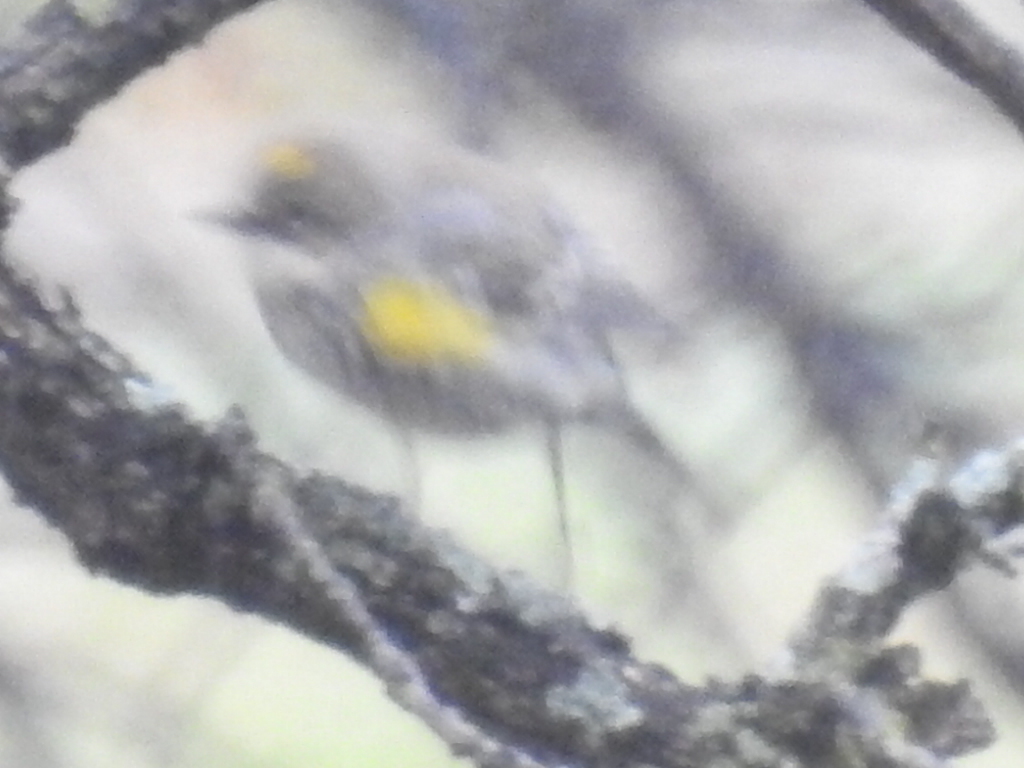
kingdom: Animalia
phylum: Chordata
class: Aves
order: Passeriformes
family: Parulidae
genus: Setophaga
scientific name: Setophaga coronata
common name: Myrtle warbler
